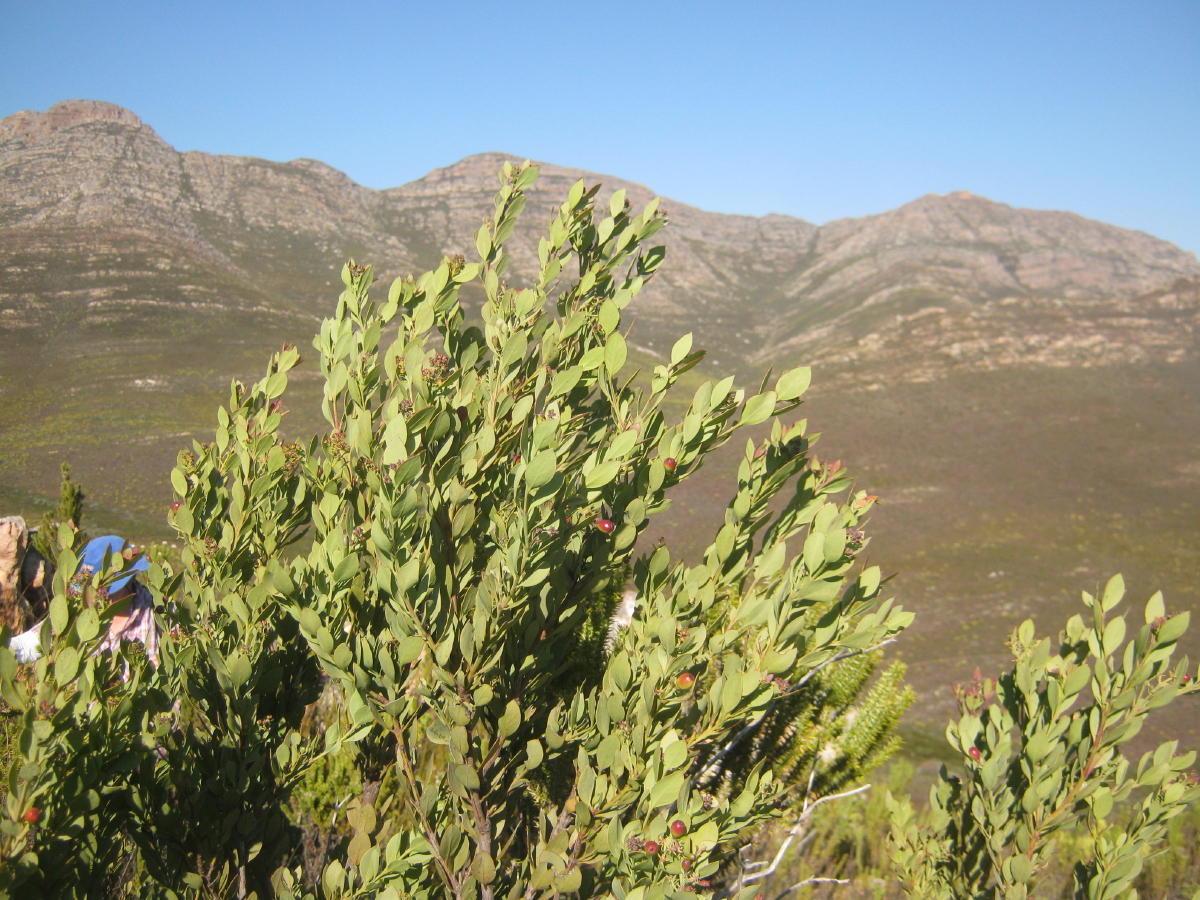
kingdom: Plantae
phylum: Tracheophyta
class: Magnoliopsida
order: Santalales
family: Santalaceae
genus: Osyris
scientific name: Osyris compressa
